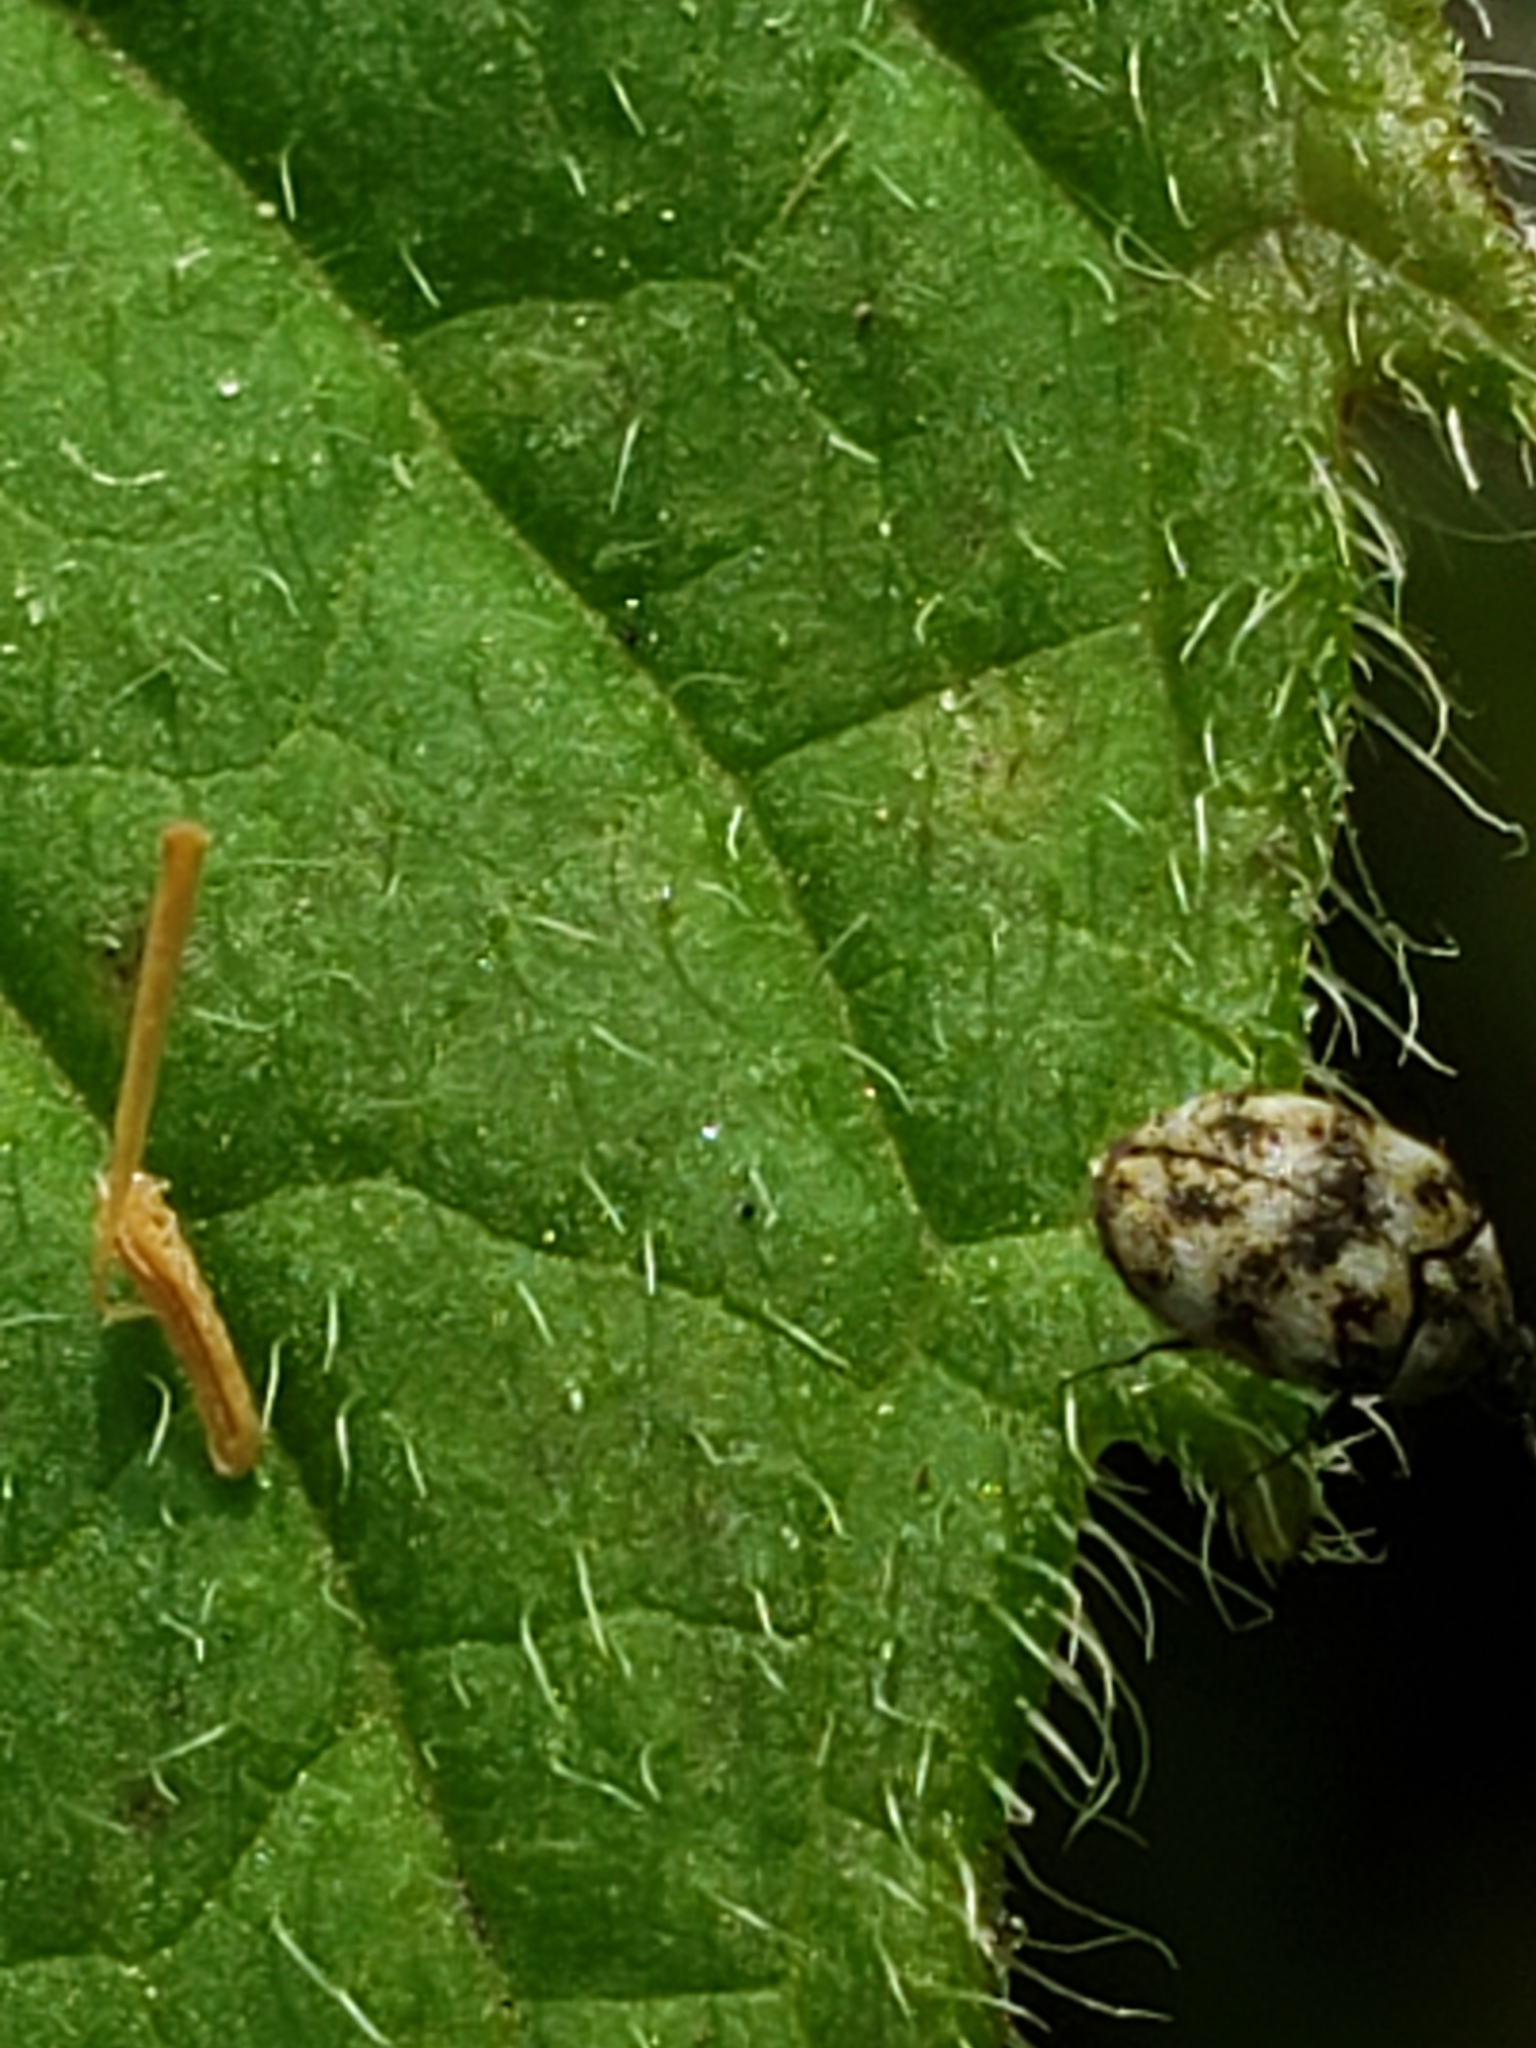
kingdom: Animalia
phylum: Arthropoda
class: Insecta
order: Coleoptera
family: Dermestidae
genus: Anthrenus
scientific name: Anthrenus verbasci
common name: Varied carpet beetle
